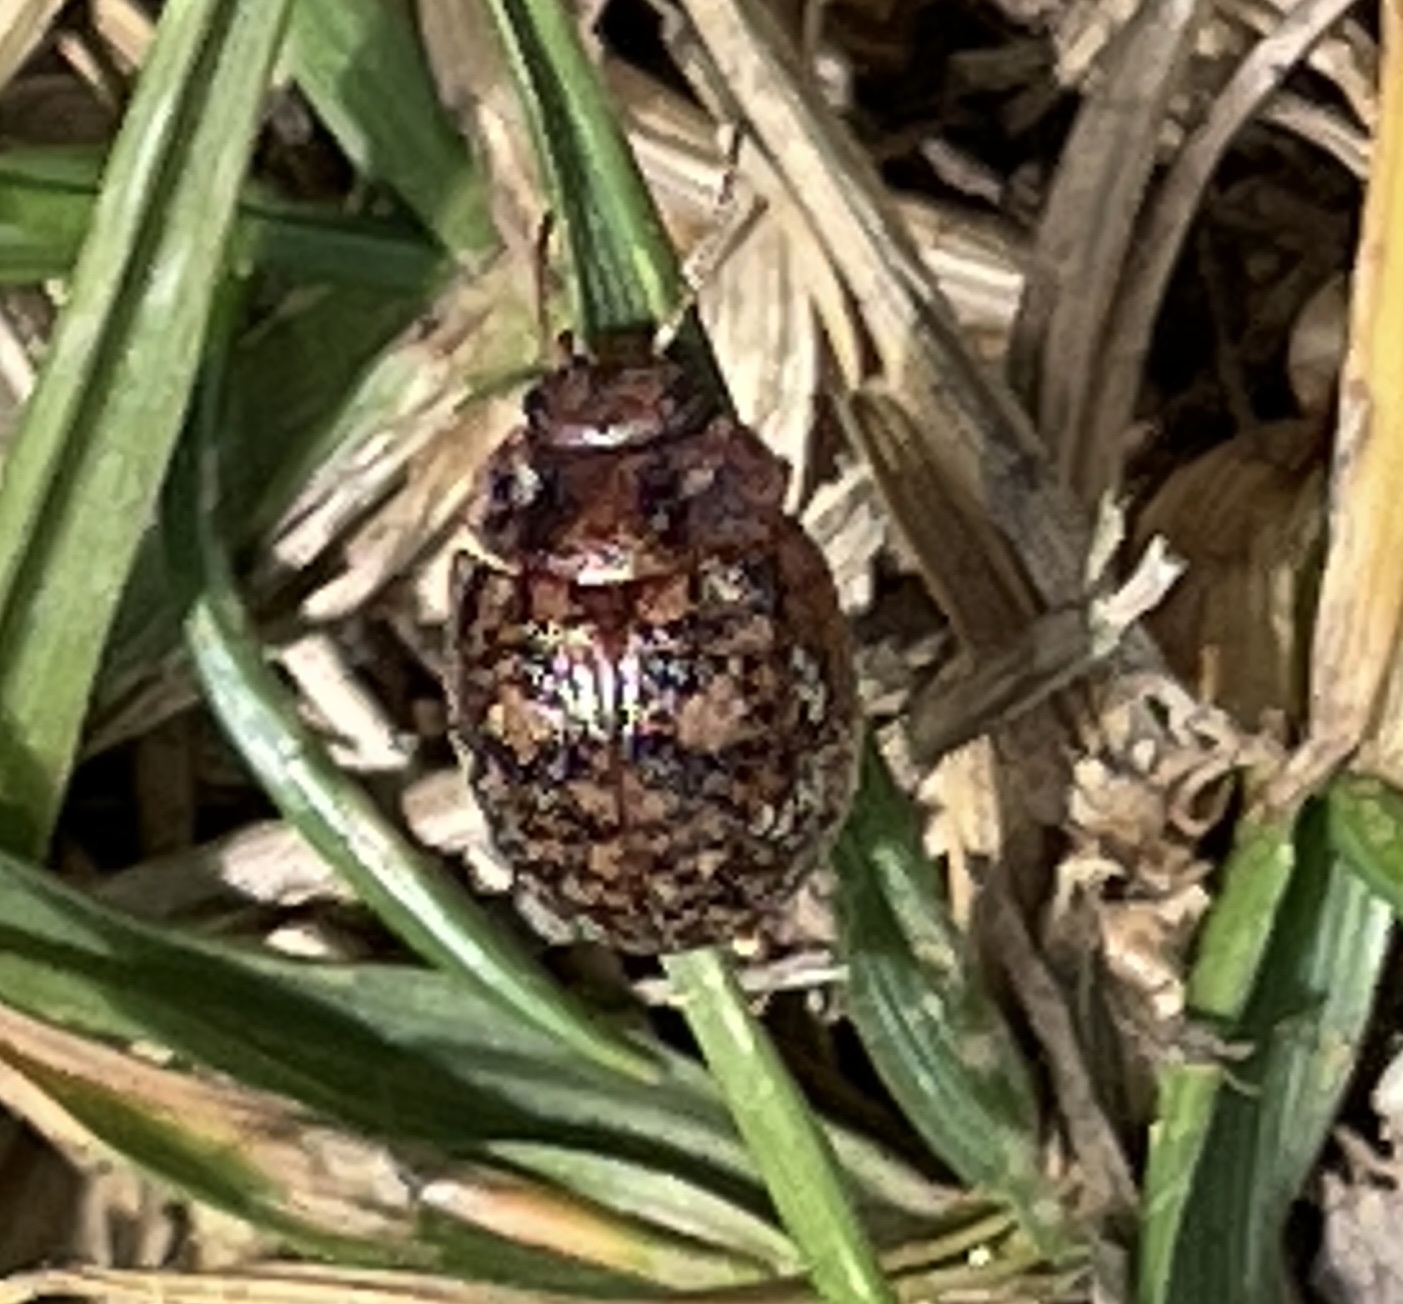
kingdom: Animalia
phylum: Arthropoda
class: Insecta
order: Coleoptera
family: Chrysomelidae
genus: Trachymela
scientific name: Trachymela sloanei
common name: Australian tortoise beetle
